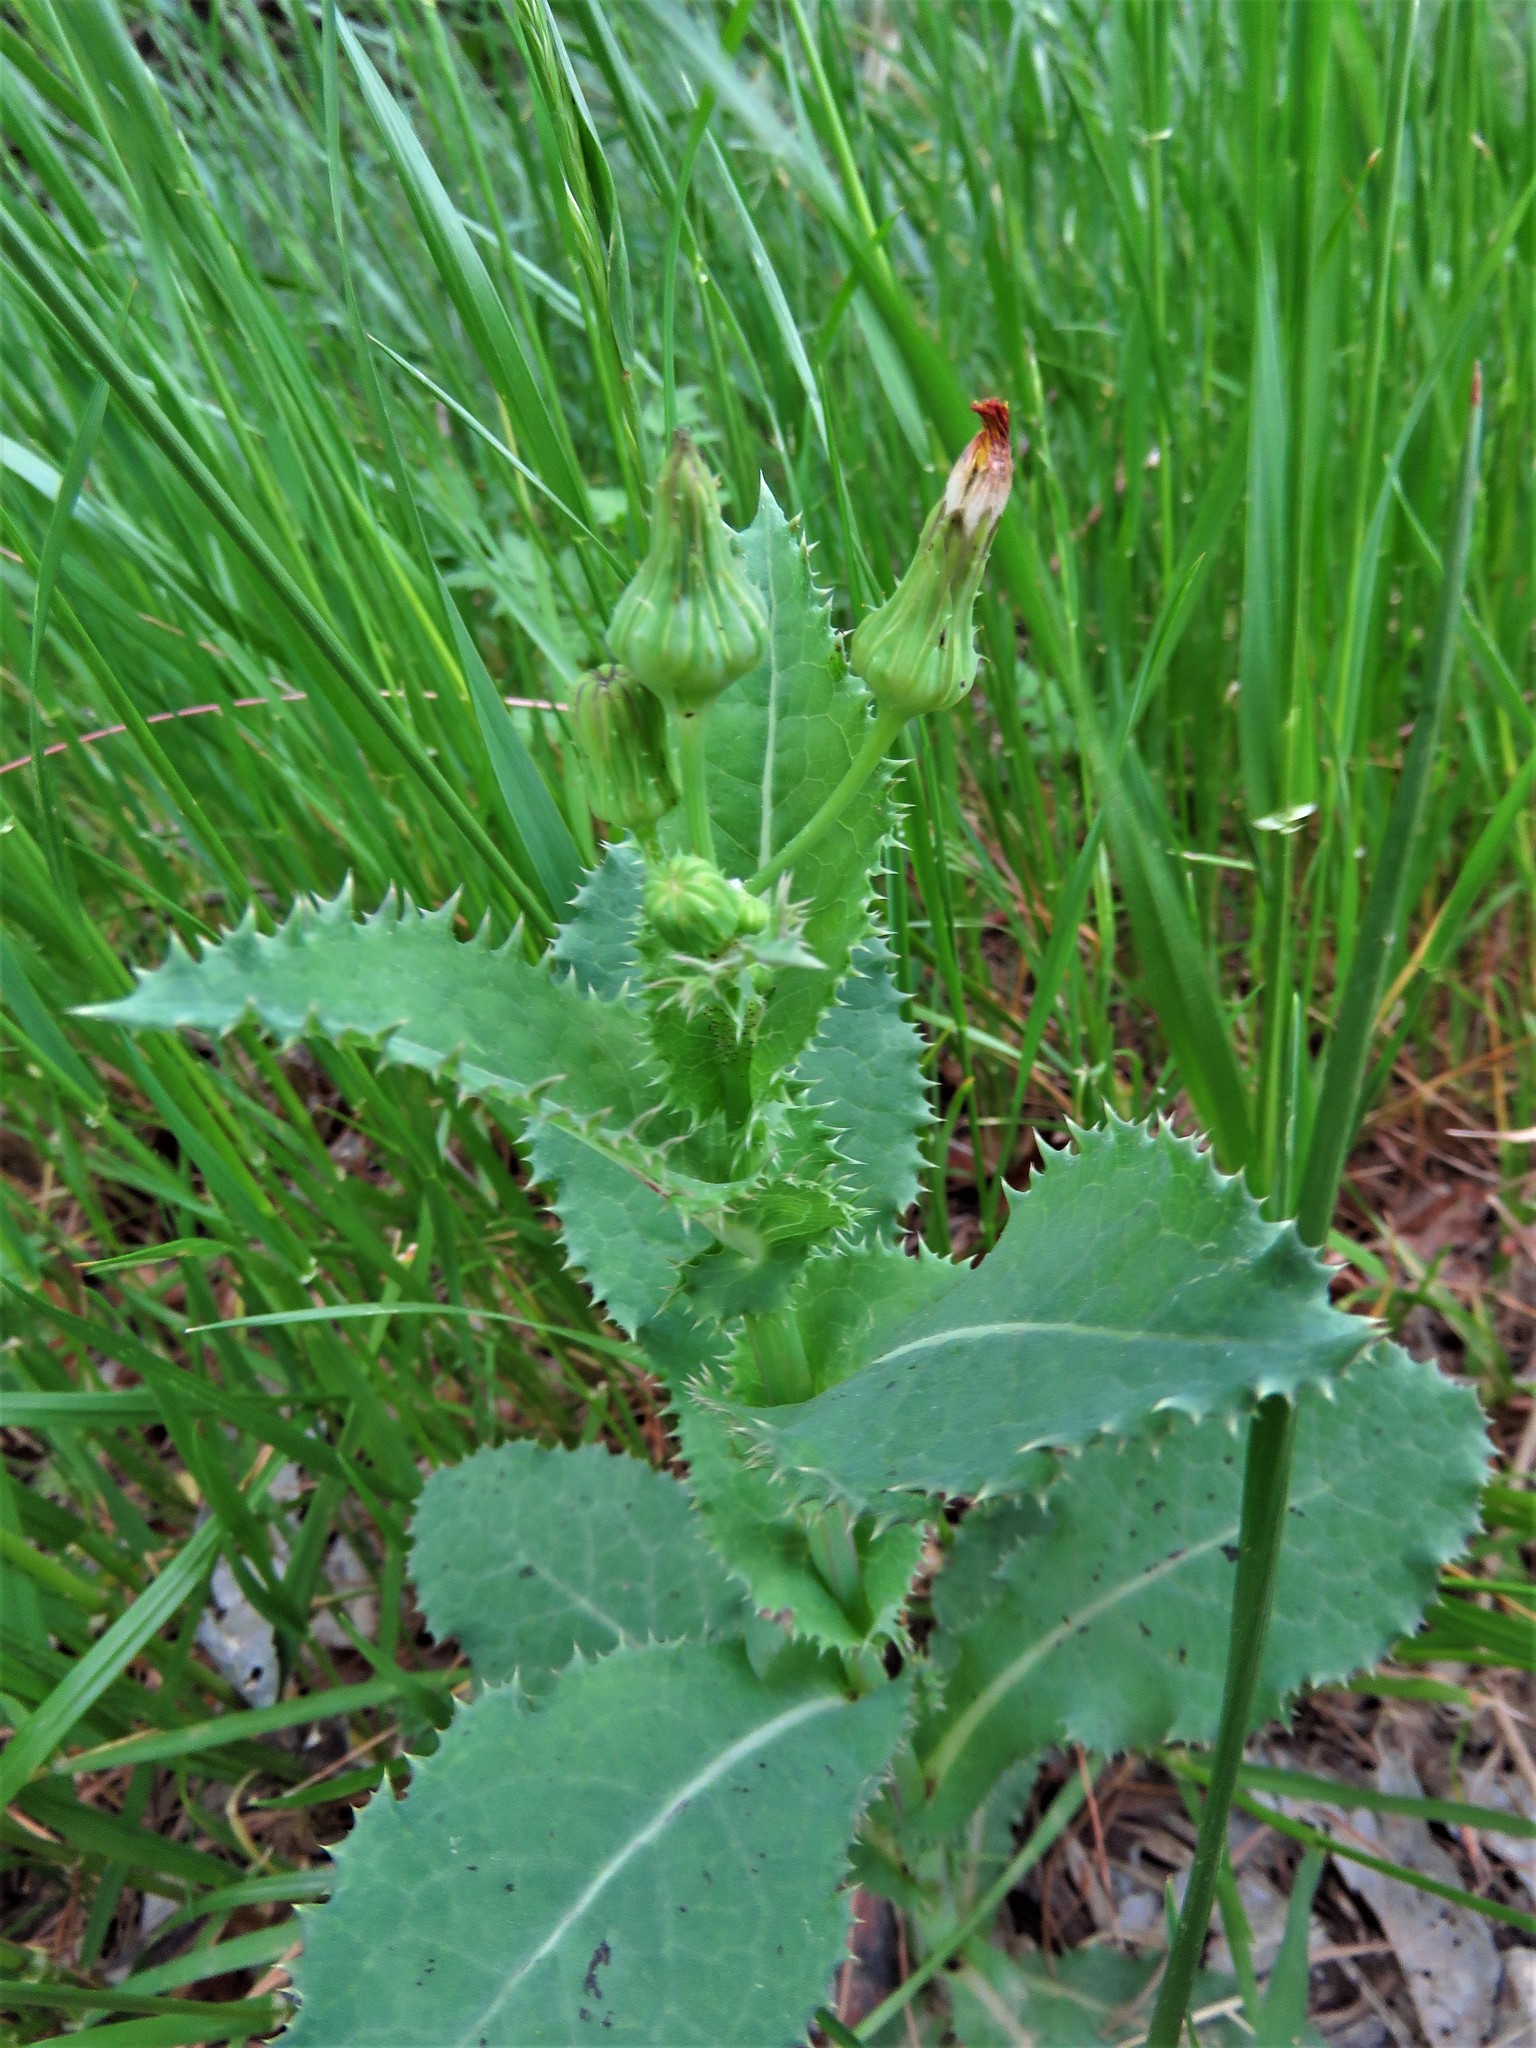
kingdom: Plantae
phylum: Tracheophyta
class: Magnoliopsida
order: Asterales
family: Asteraceae
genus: Sonchus
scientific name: Sonchus asper
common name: Prickly sow-thistle
